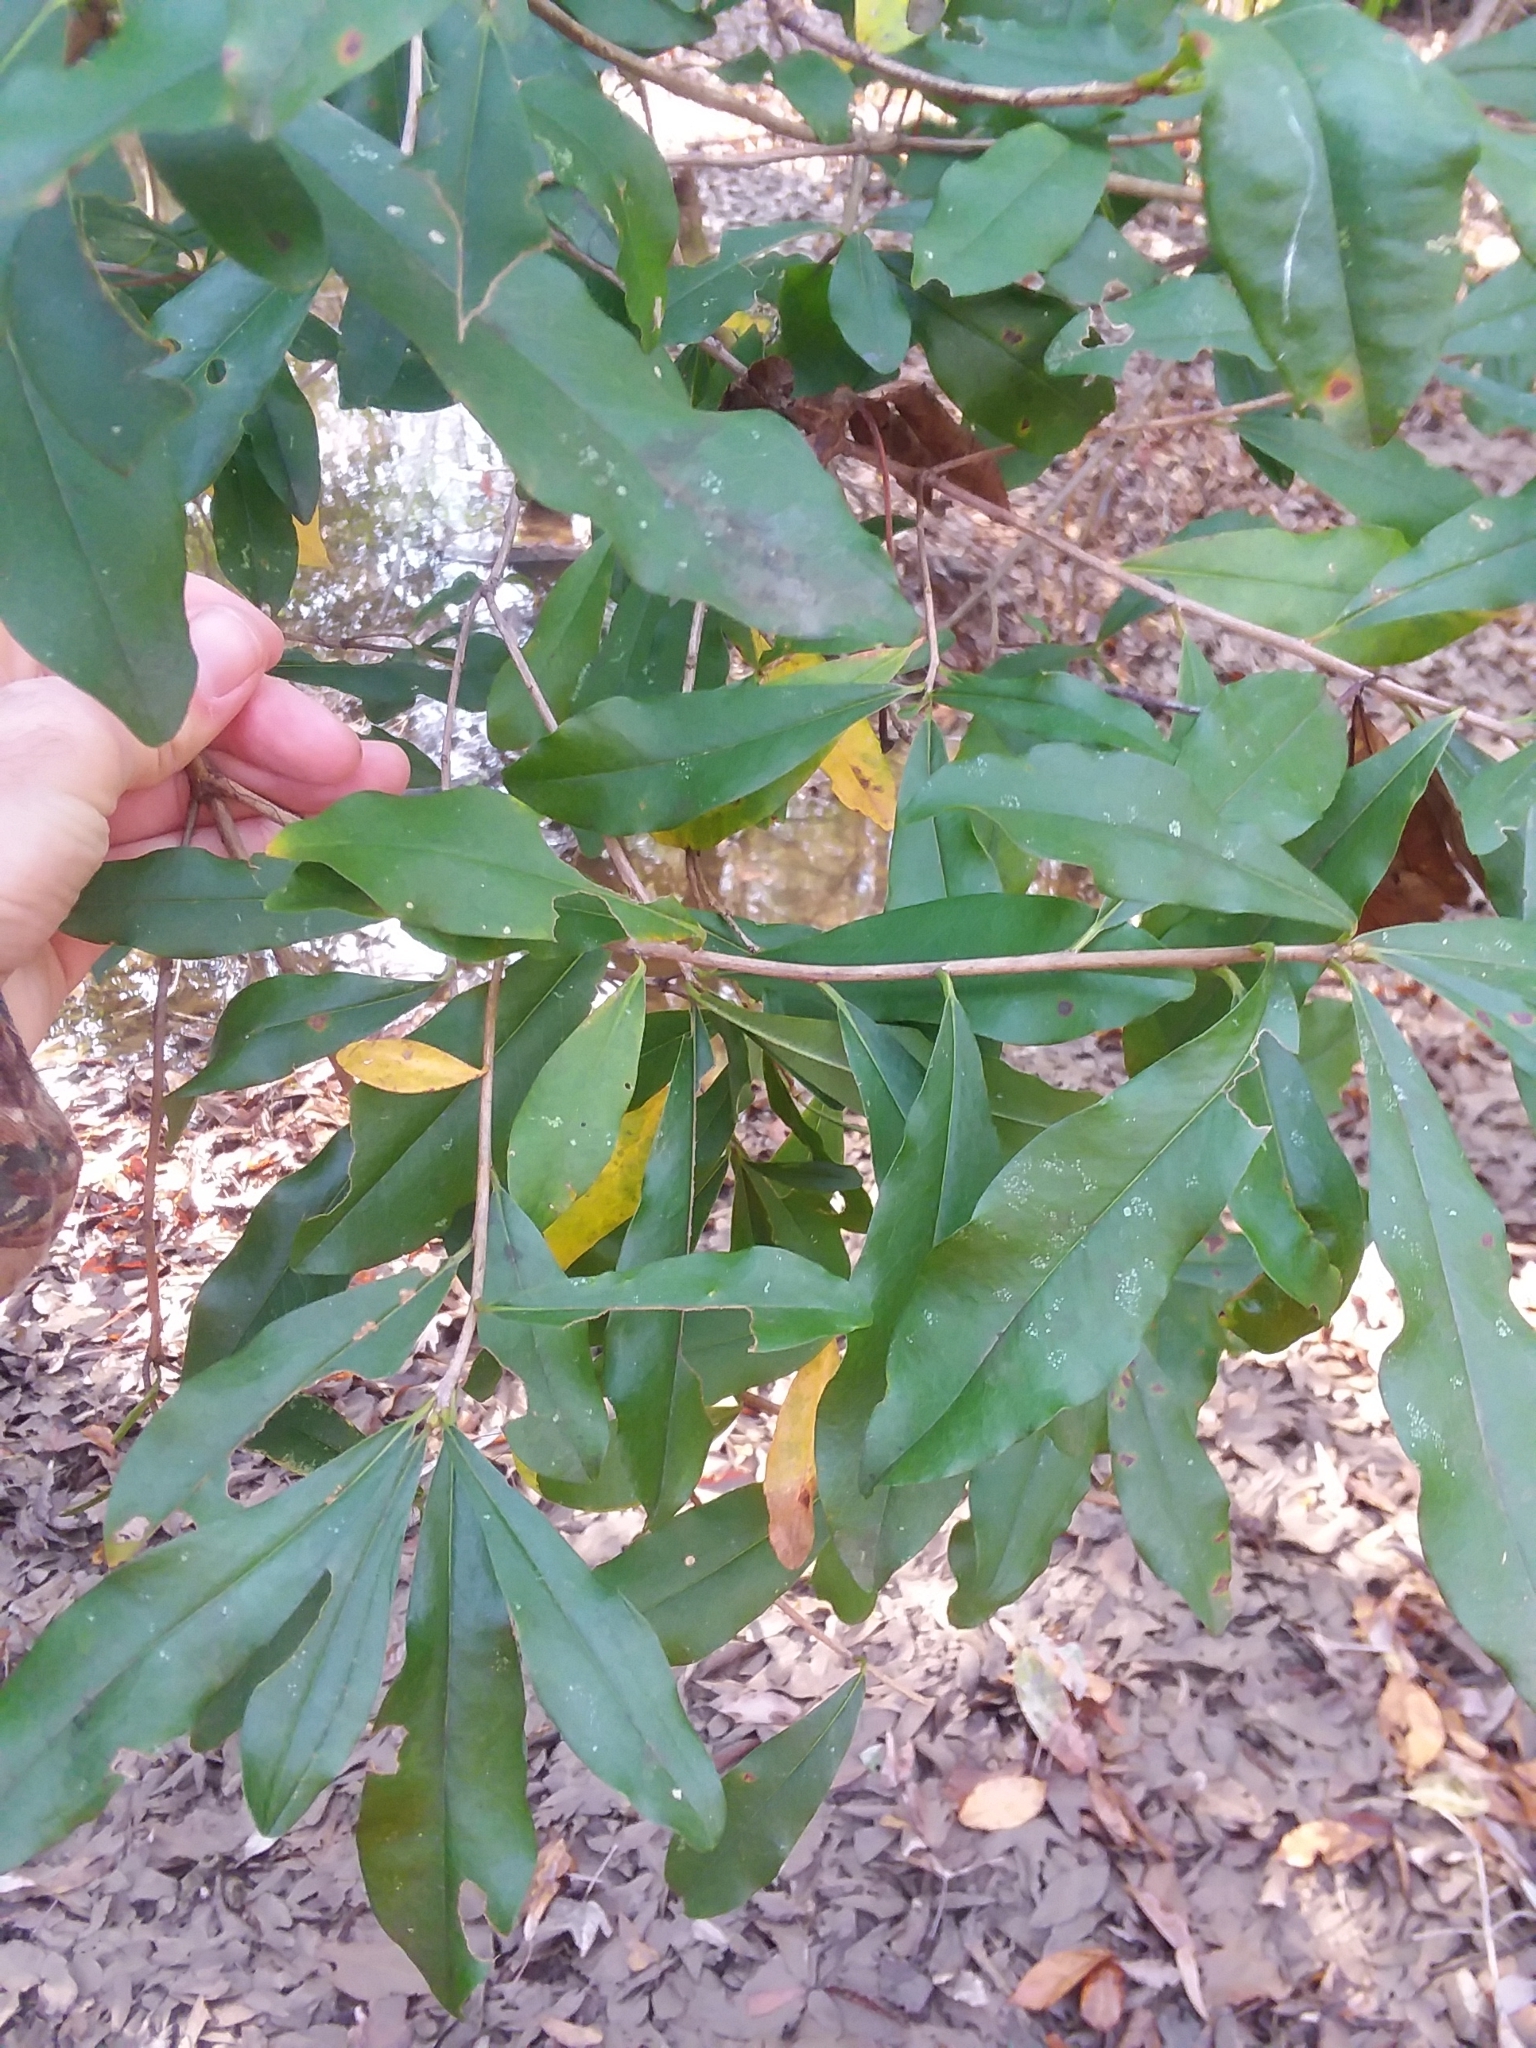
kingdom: Plantae
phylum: Tracheophyta
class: Magnoliopsida
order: Ericales
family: Cyrillaceae
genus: Cyrilla
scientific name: Cyrilla racemiflora
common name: Black titi
